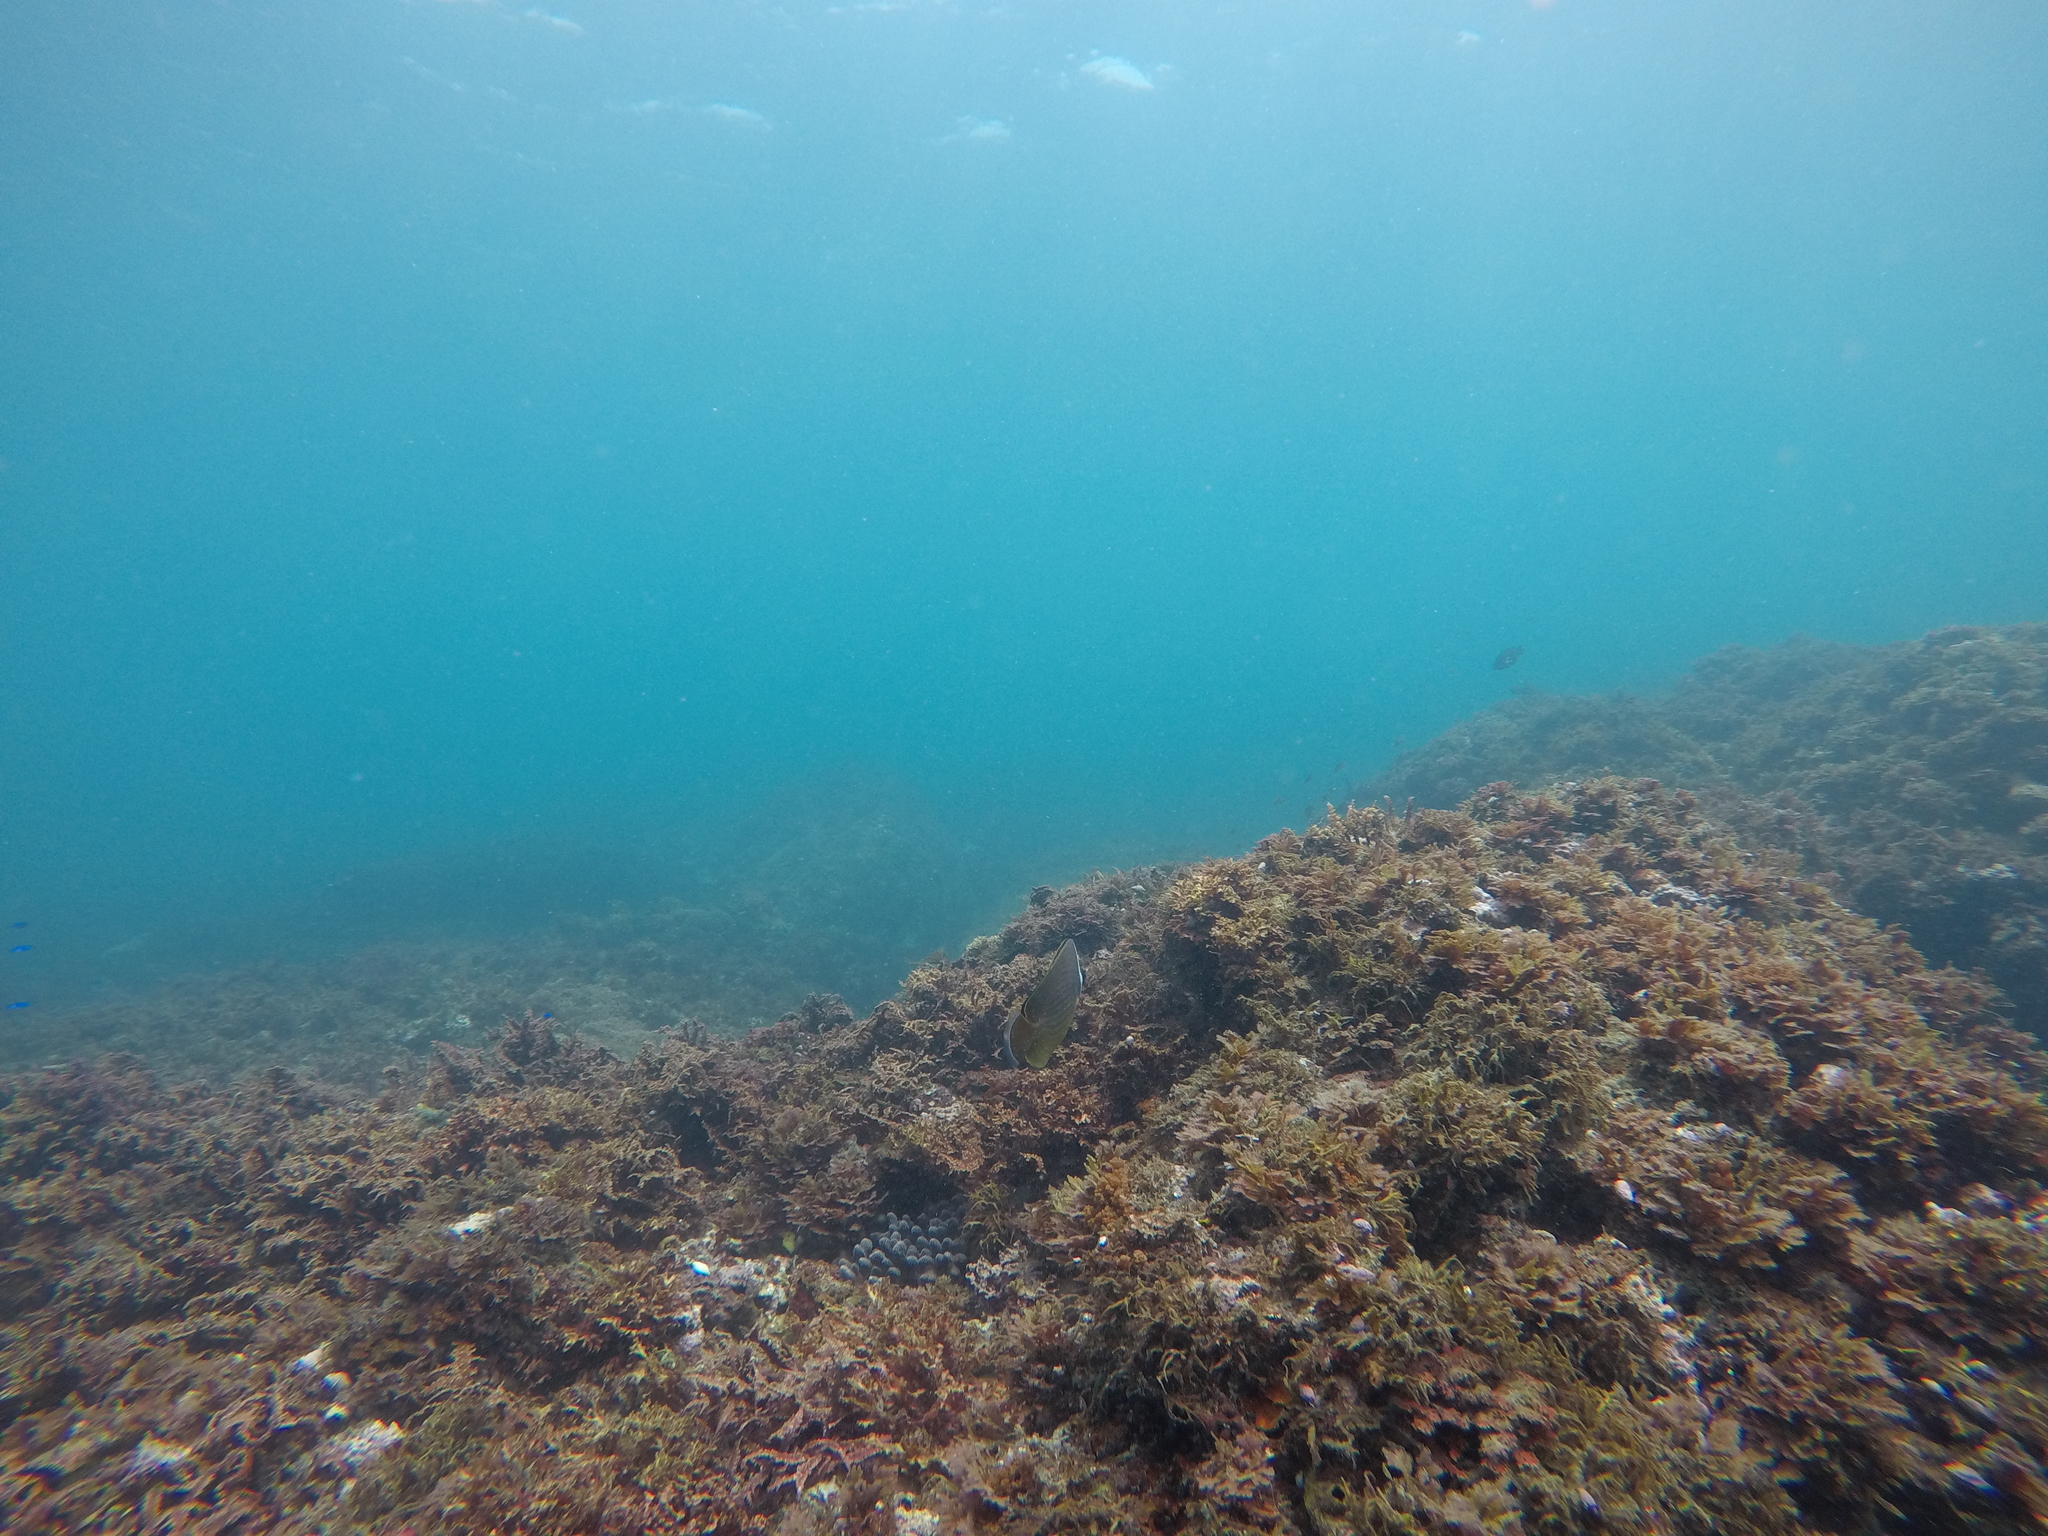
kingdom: Animalia
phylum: Chordata
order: Perciformes
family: Chaetodontidae
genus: Chaetodon
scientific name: Chaetodon auripes
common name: Oriental butterflyfish
